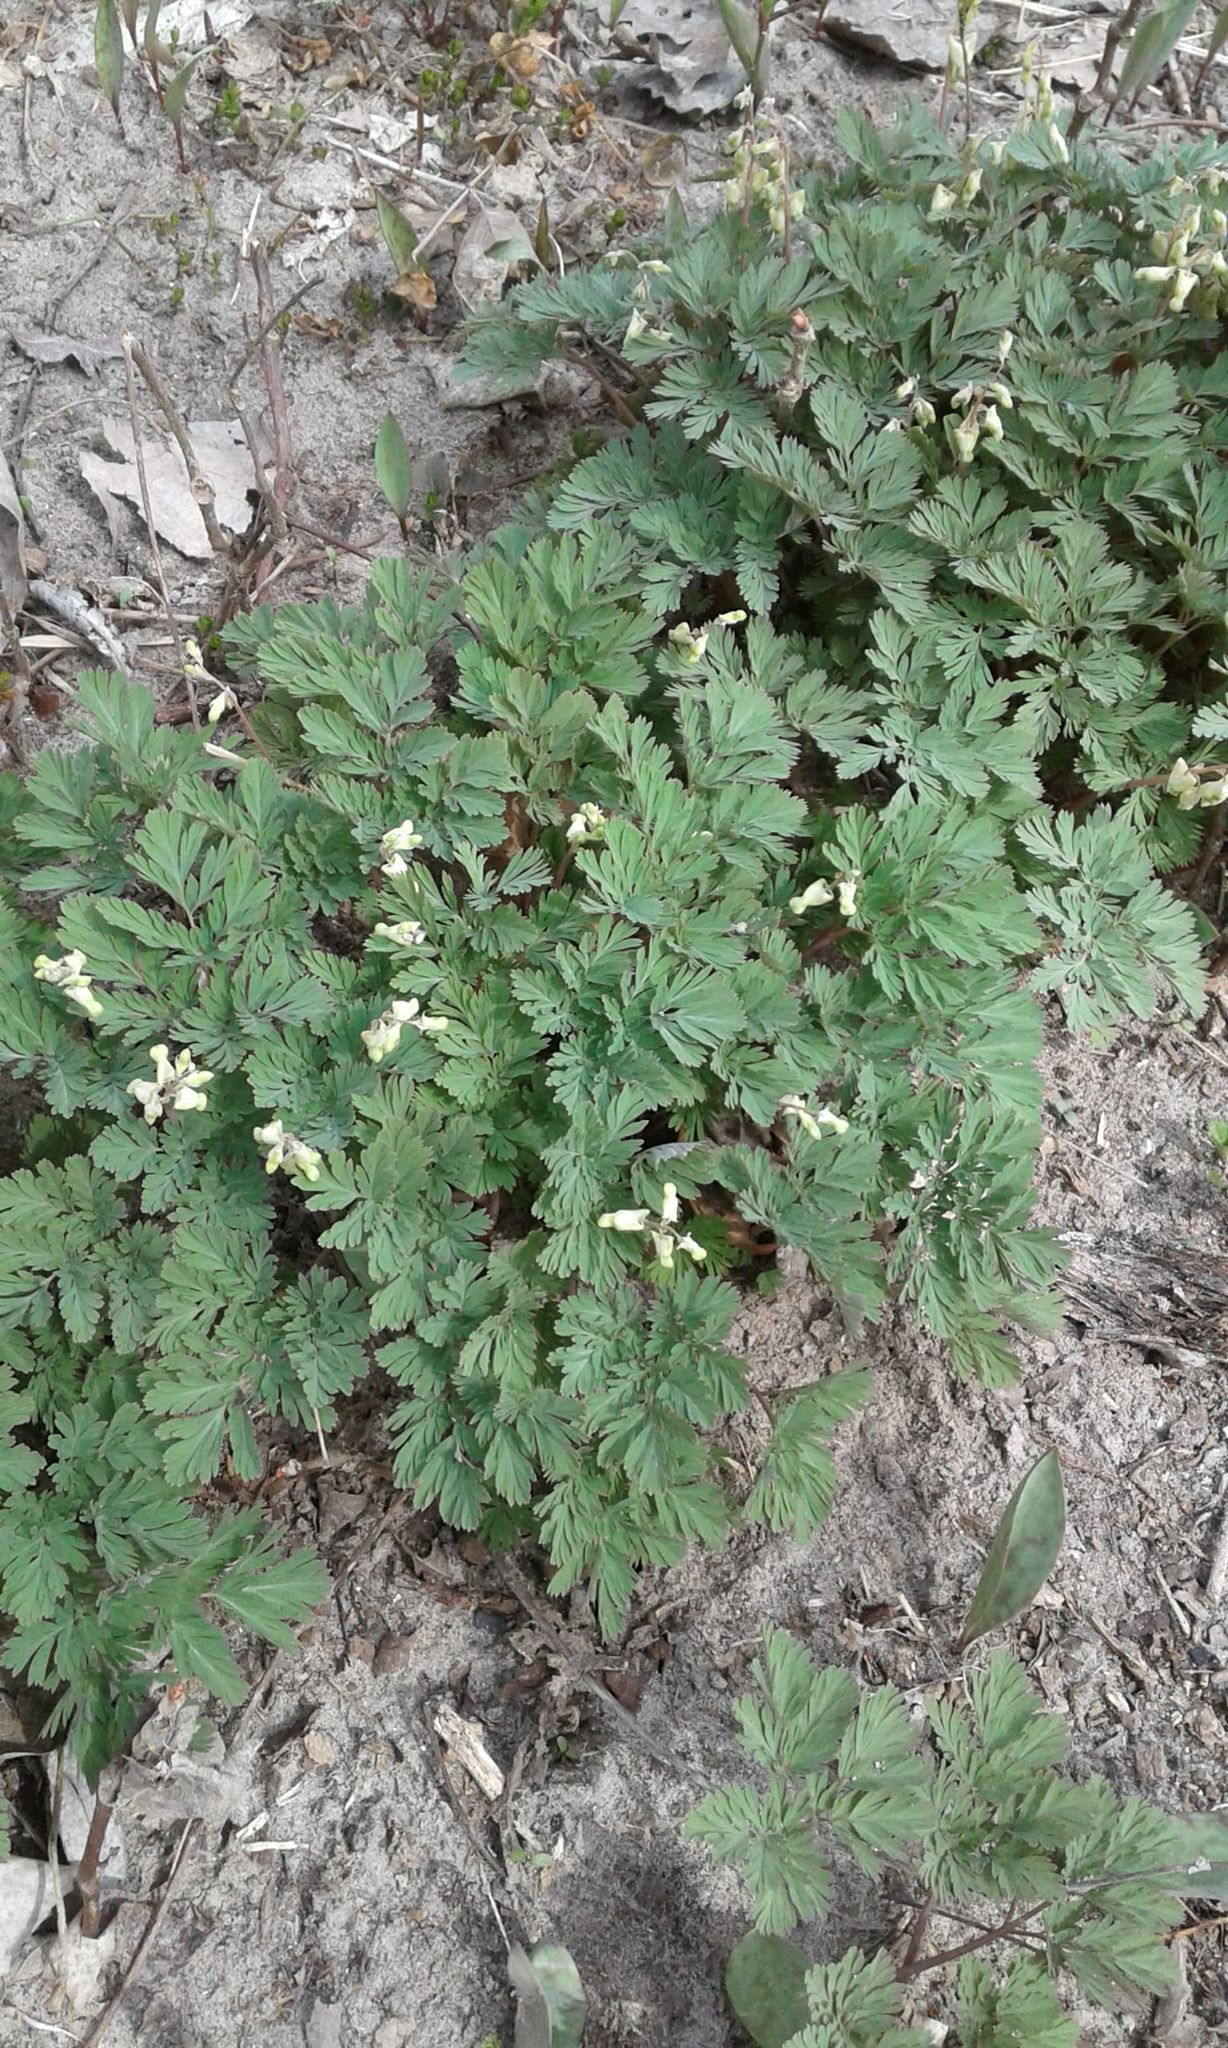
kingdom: Plantae
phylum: Tracheophyta
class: Magnoliopsida
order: Ranunculales
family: Papaveraceae
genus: Dicentra
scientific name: Dicentra cucullaria
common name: Dutchman's breeches
